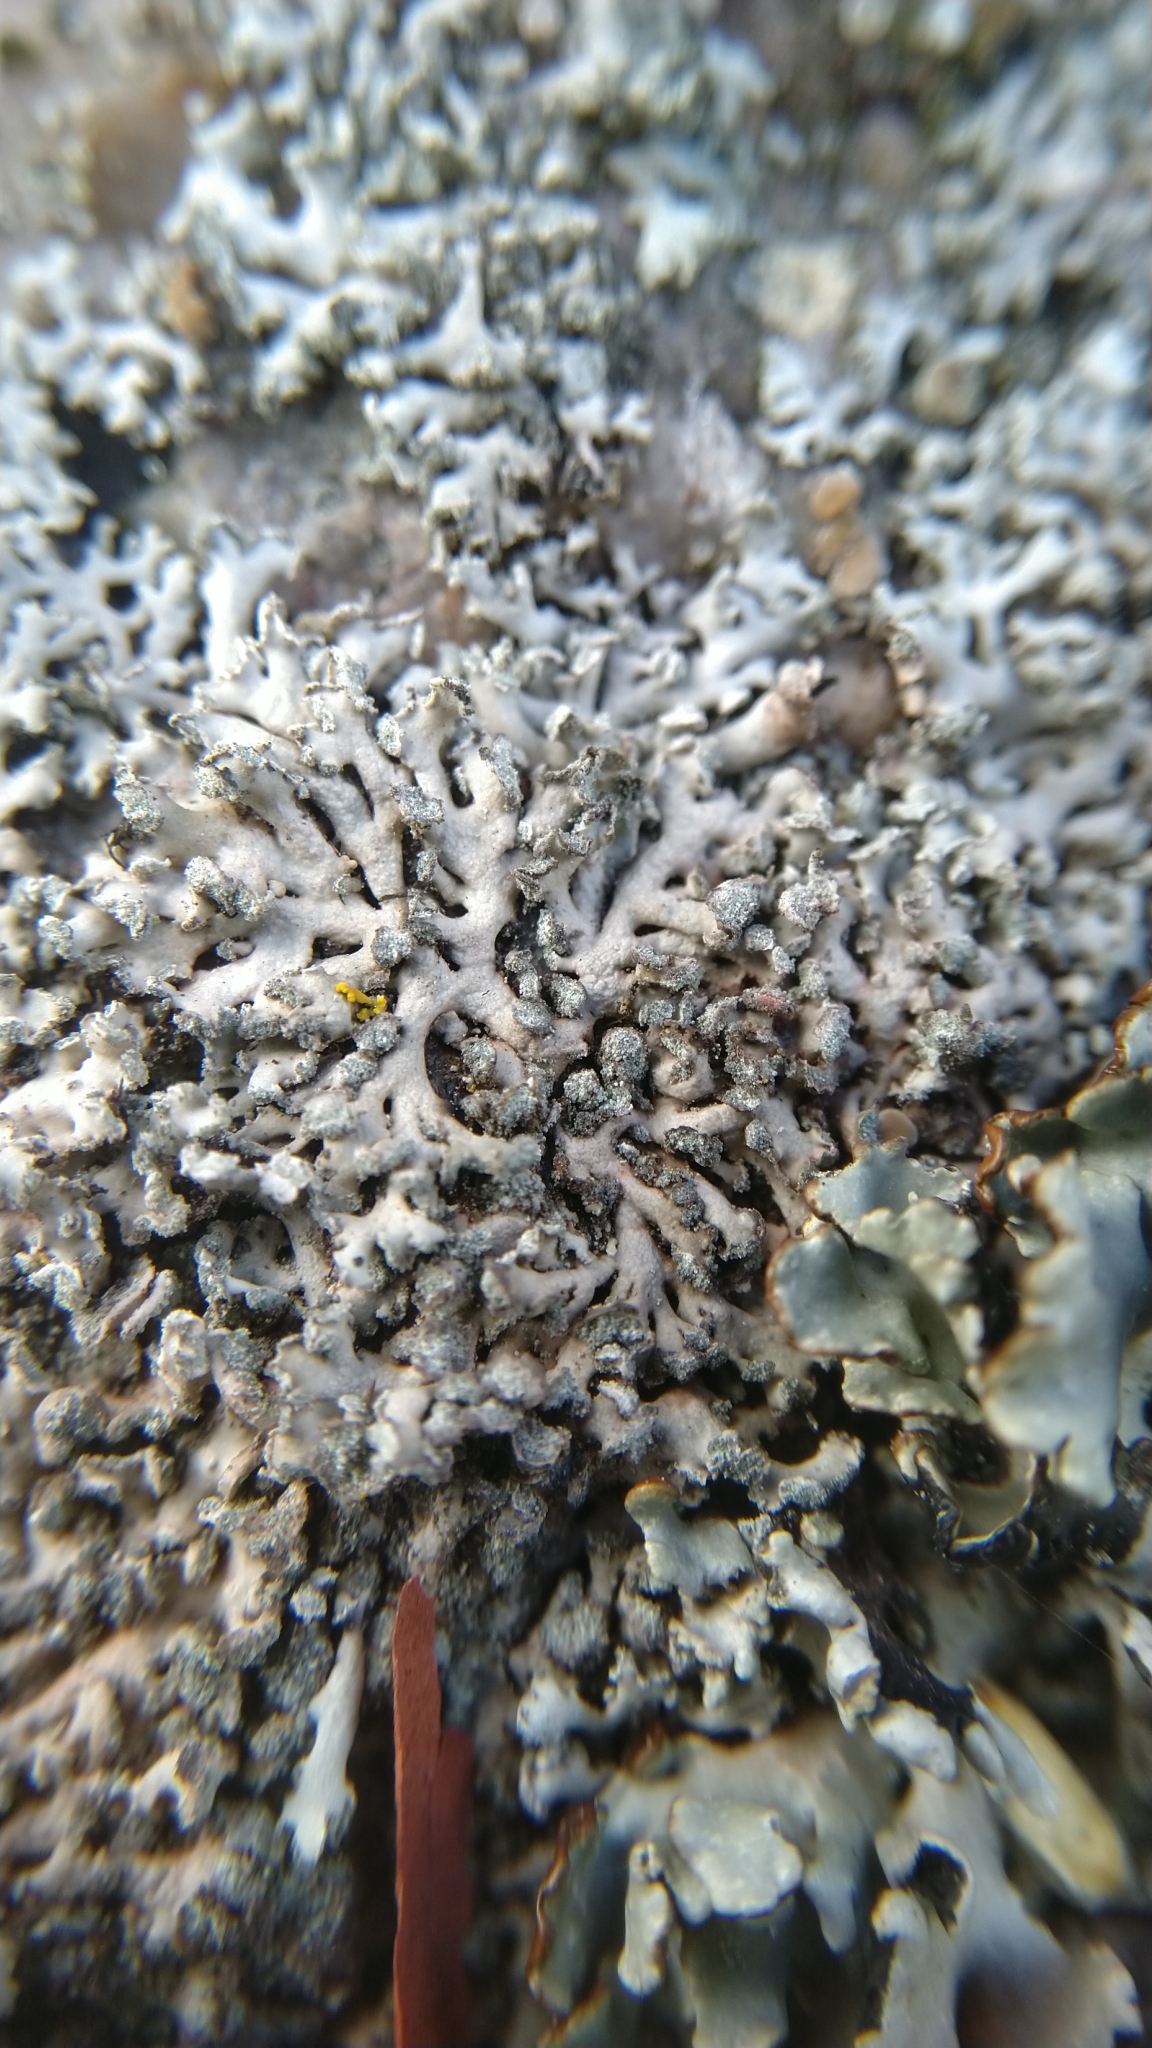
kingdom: Fungi
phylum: Ascomycota
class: Lecanoromycetes
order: Caliciales
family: Physciaceae
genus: Physcia
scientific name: Physcia caesia
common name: Blue-gray rosette lichen
